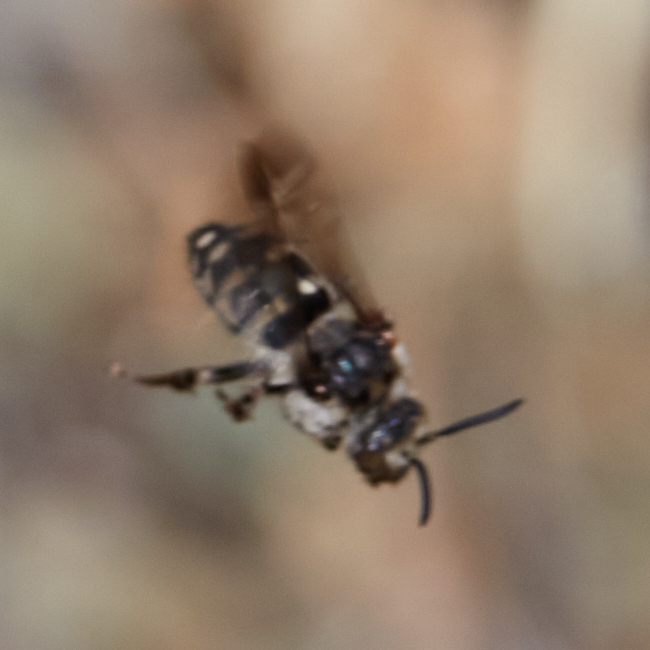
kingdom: Animalia
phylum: Arthropoda
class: Insecta
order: Hymenoptera
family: Apidae
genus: Brachymelecta
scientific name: Brachymelecta californica
